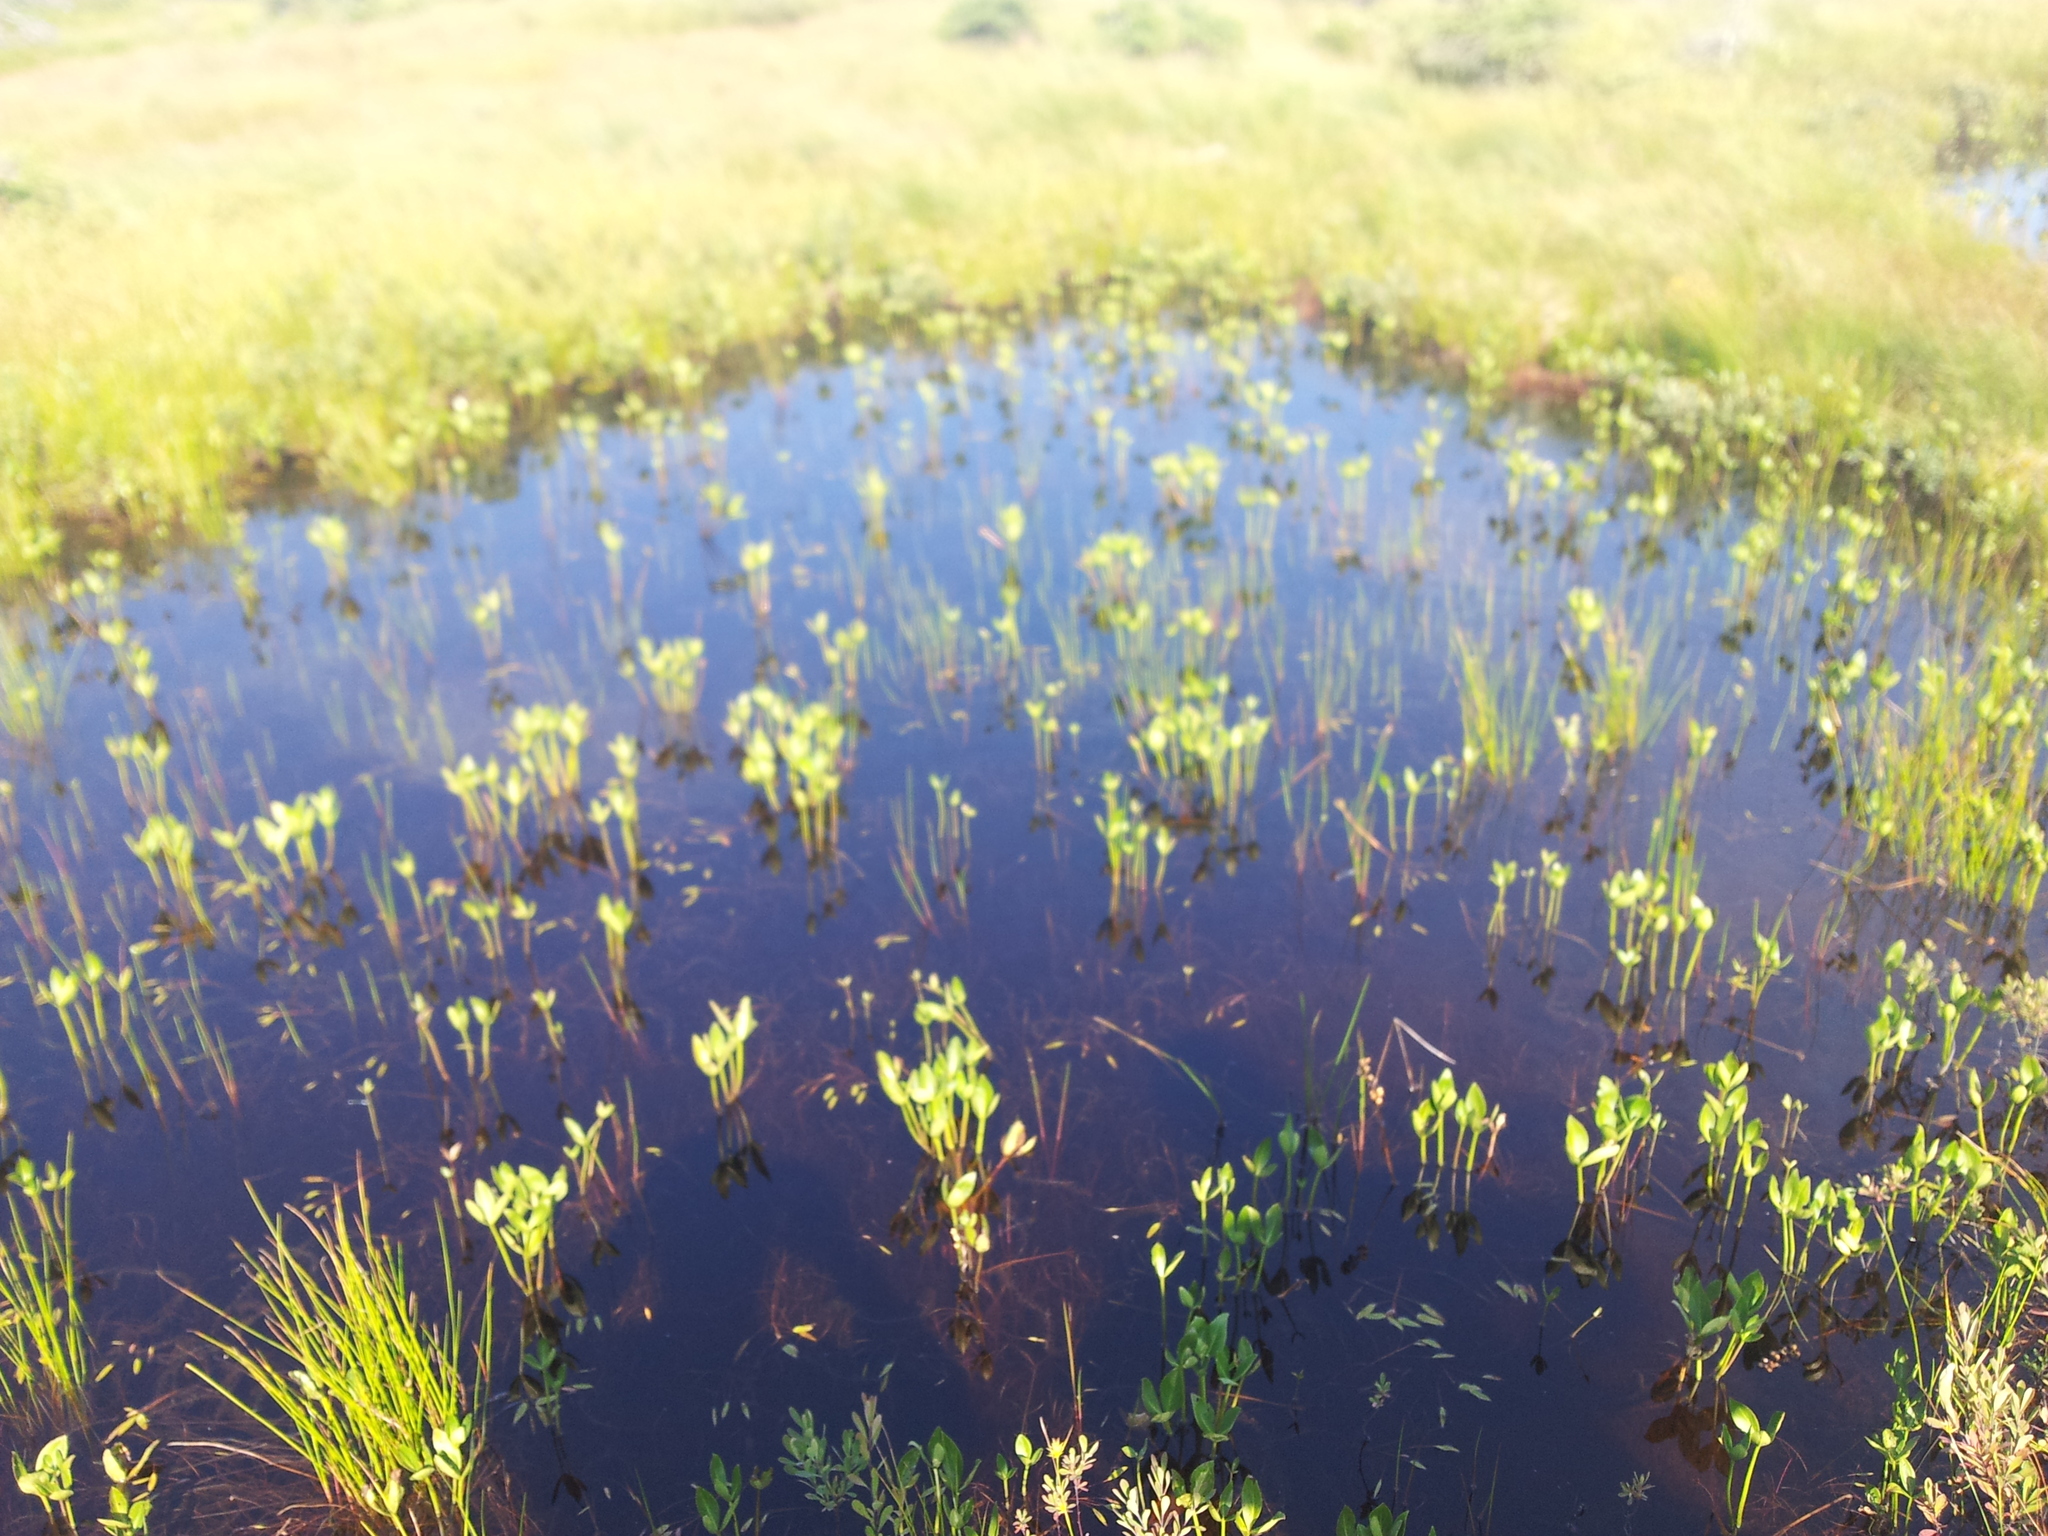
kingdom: Plantae
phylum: Tracheophyta
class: Magnoliopsida
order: Asterales
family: Menyanthaceae
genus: Menyanthes
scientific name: Menyanthes trifoliata
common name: Bogbean
